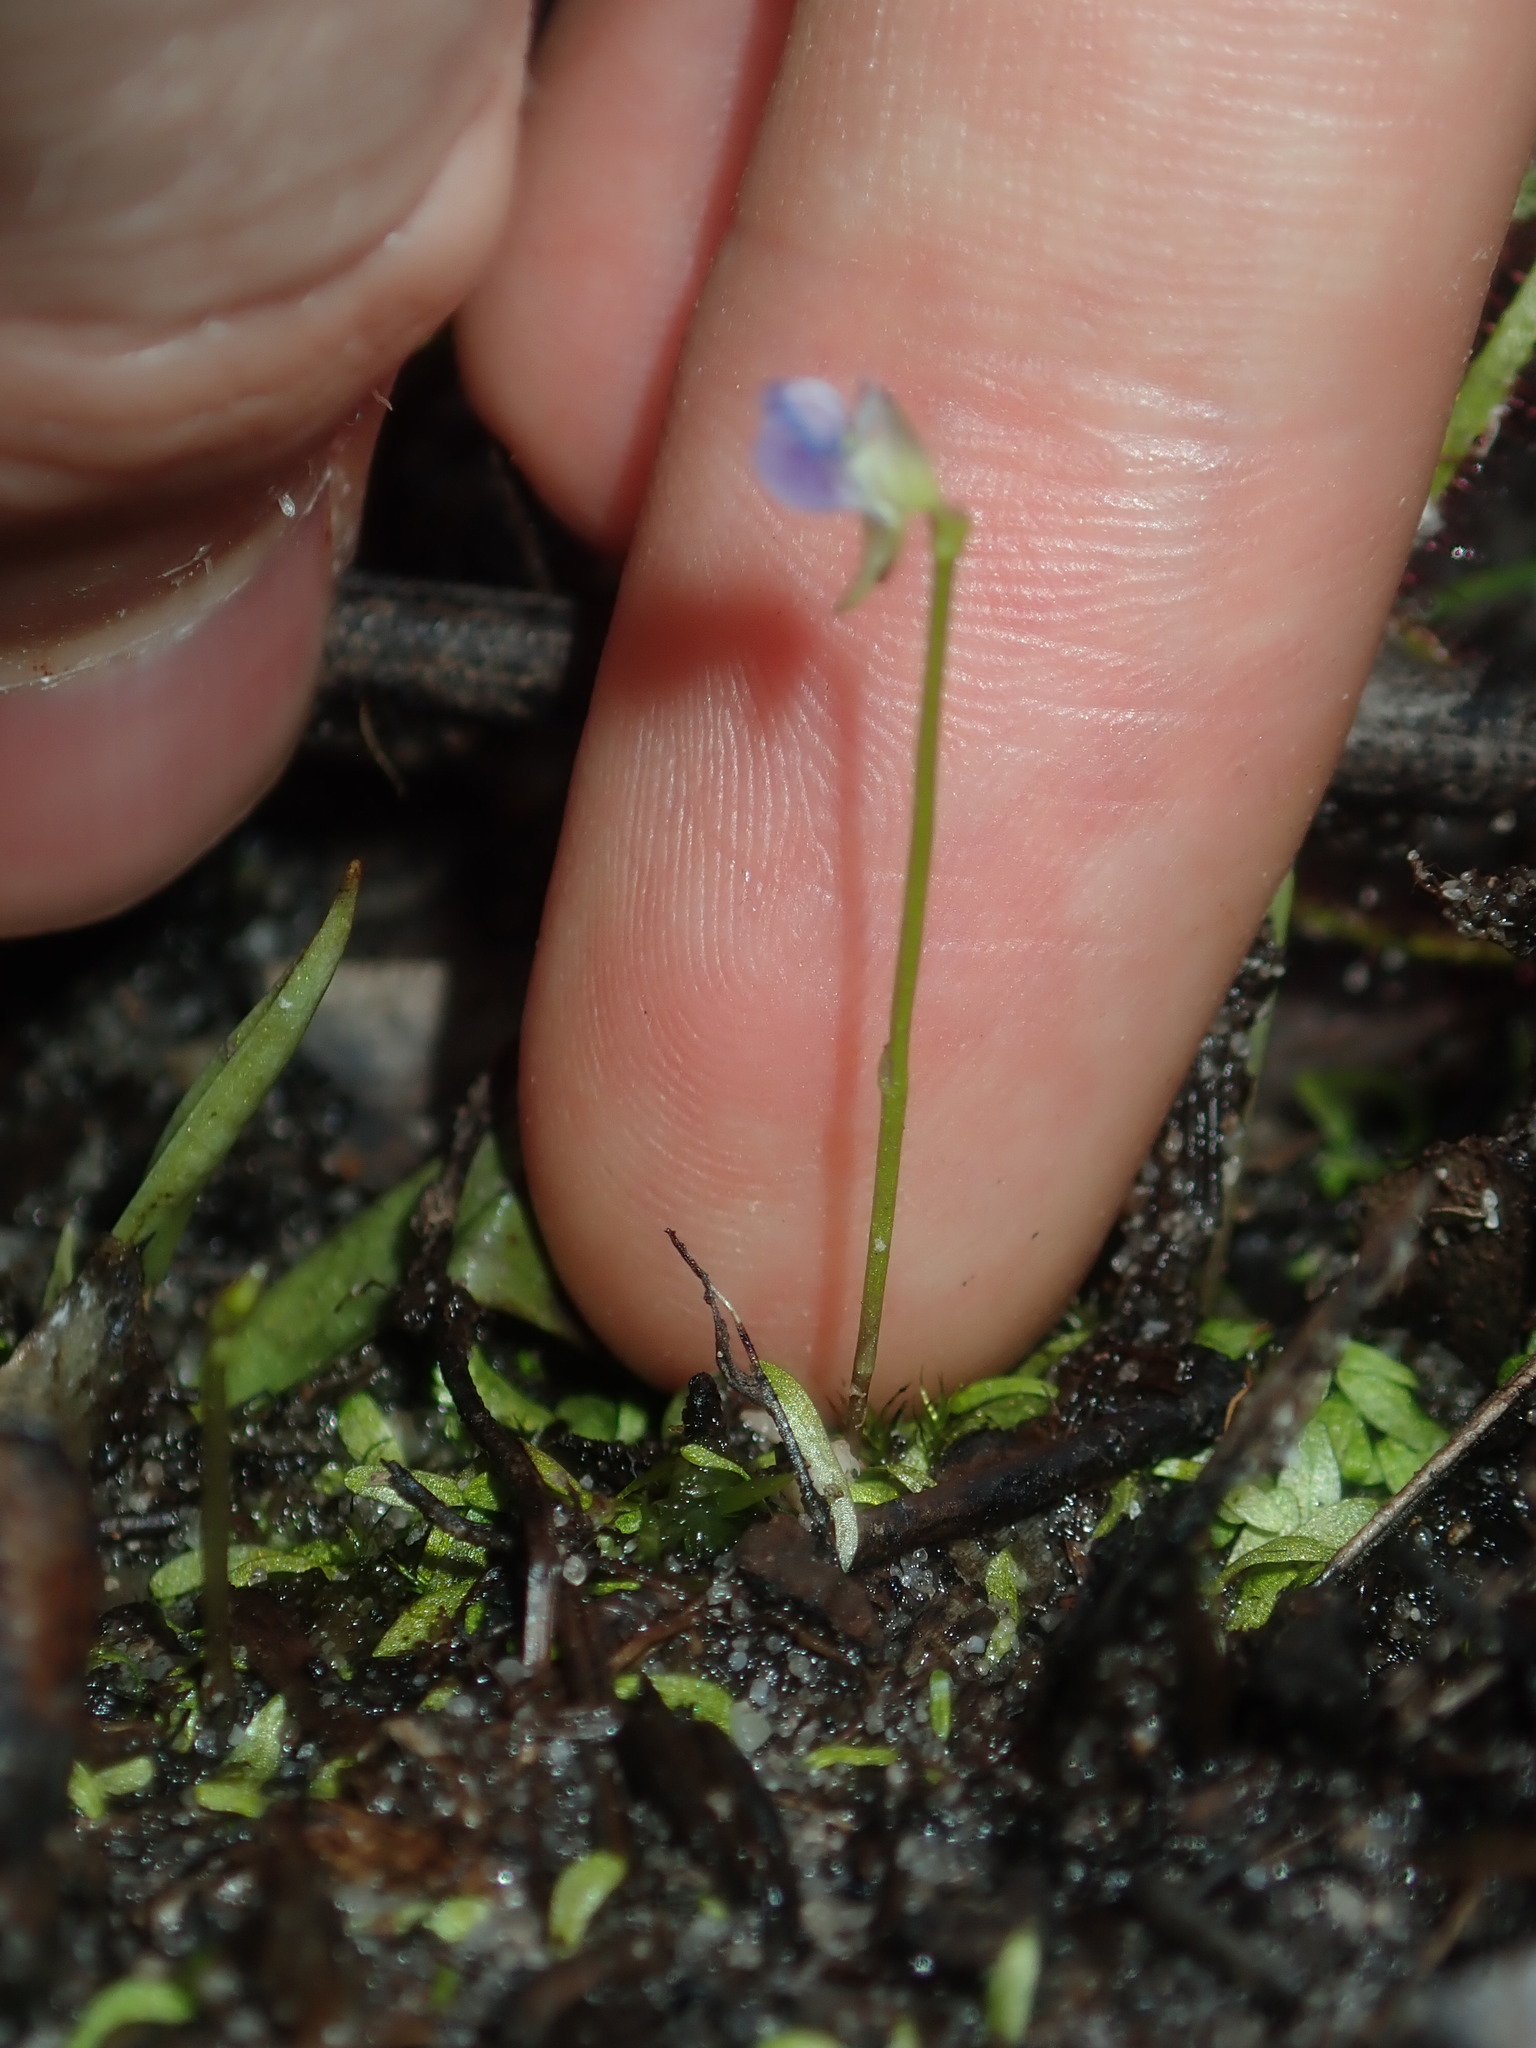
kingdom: Plantae
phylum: Tracheophyta
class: Magnoliopsida
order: Lamiales
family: Lentibulariaceae
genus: Utricularia
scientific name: Utricularia uliginosa
